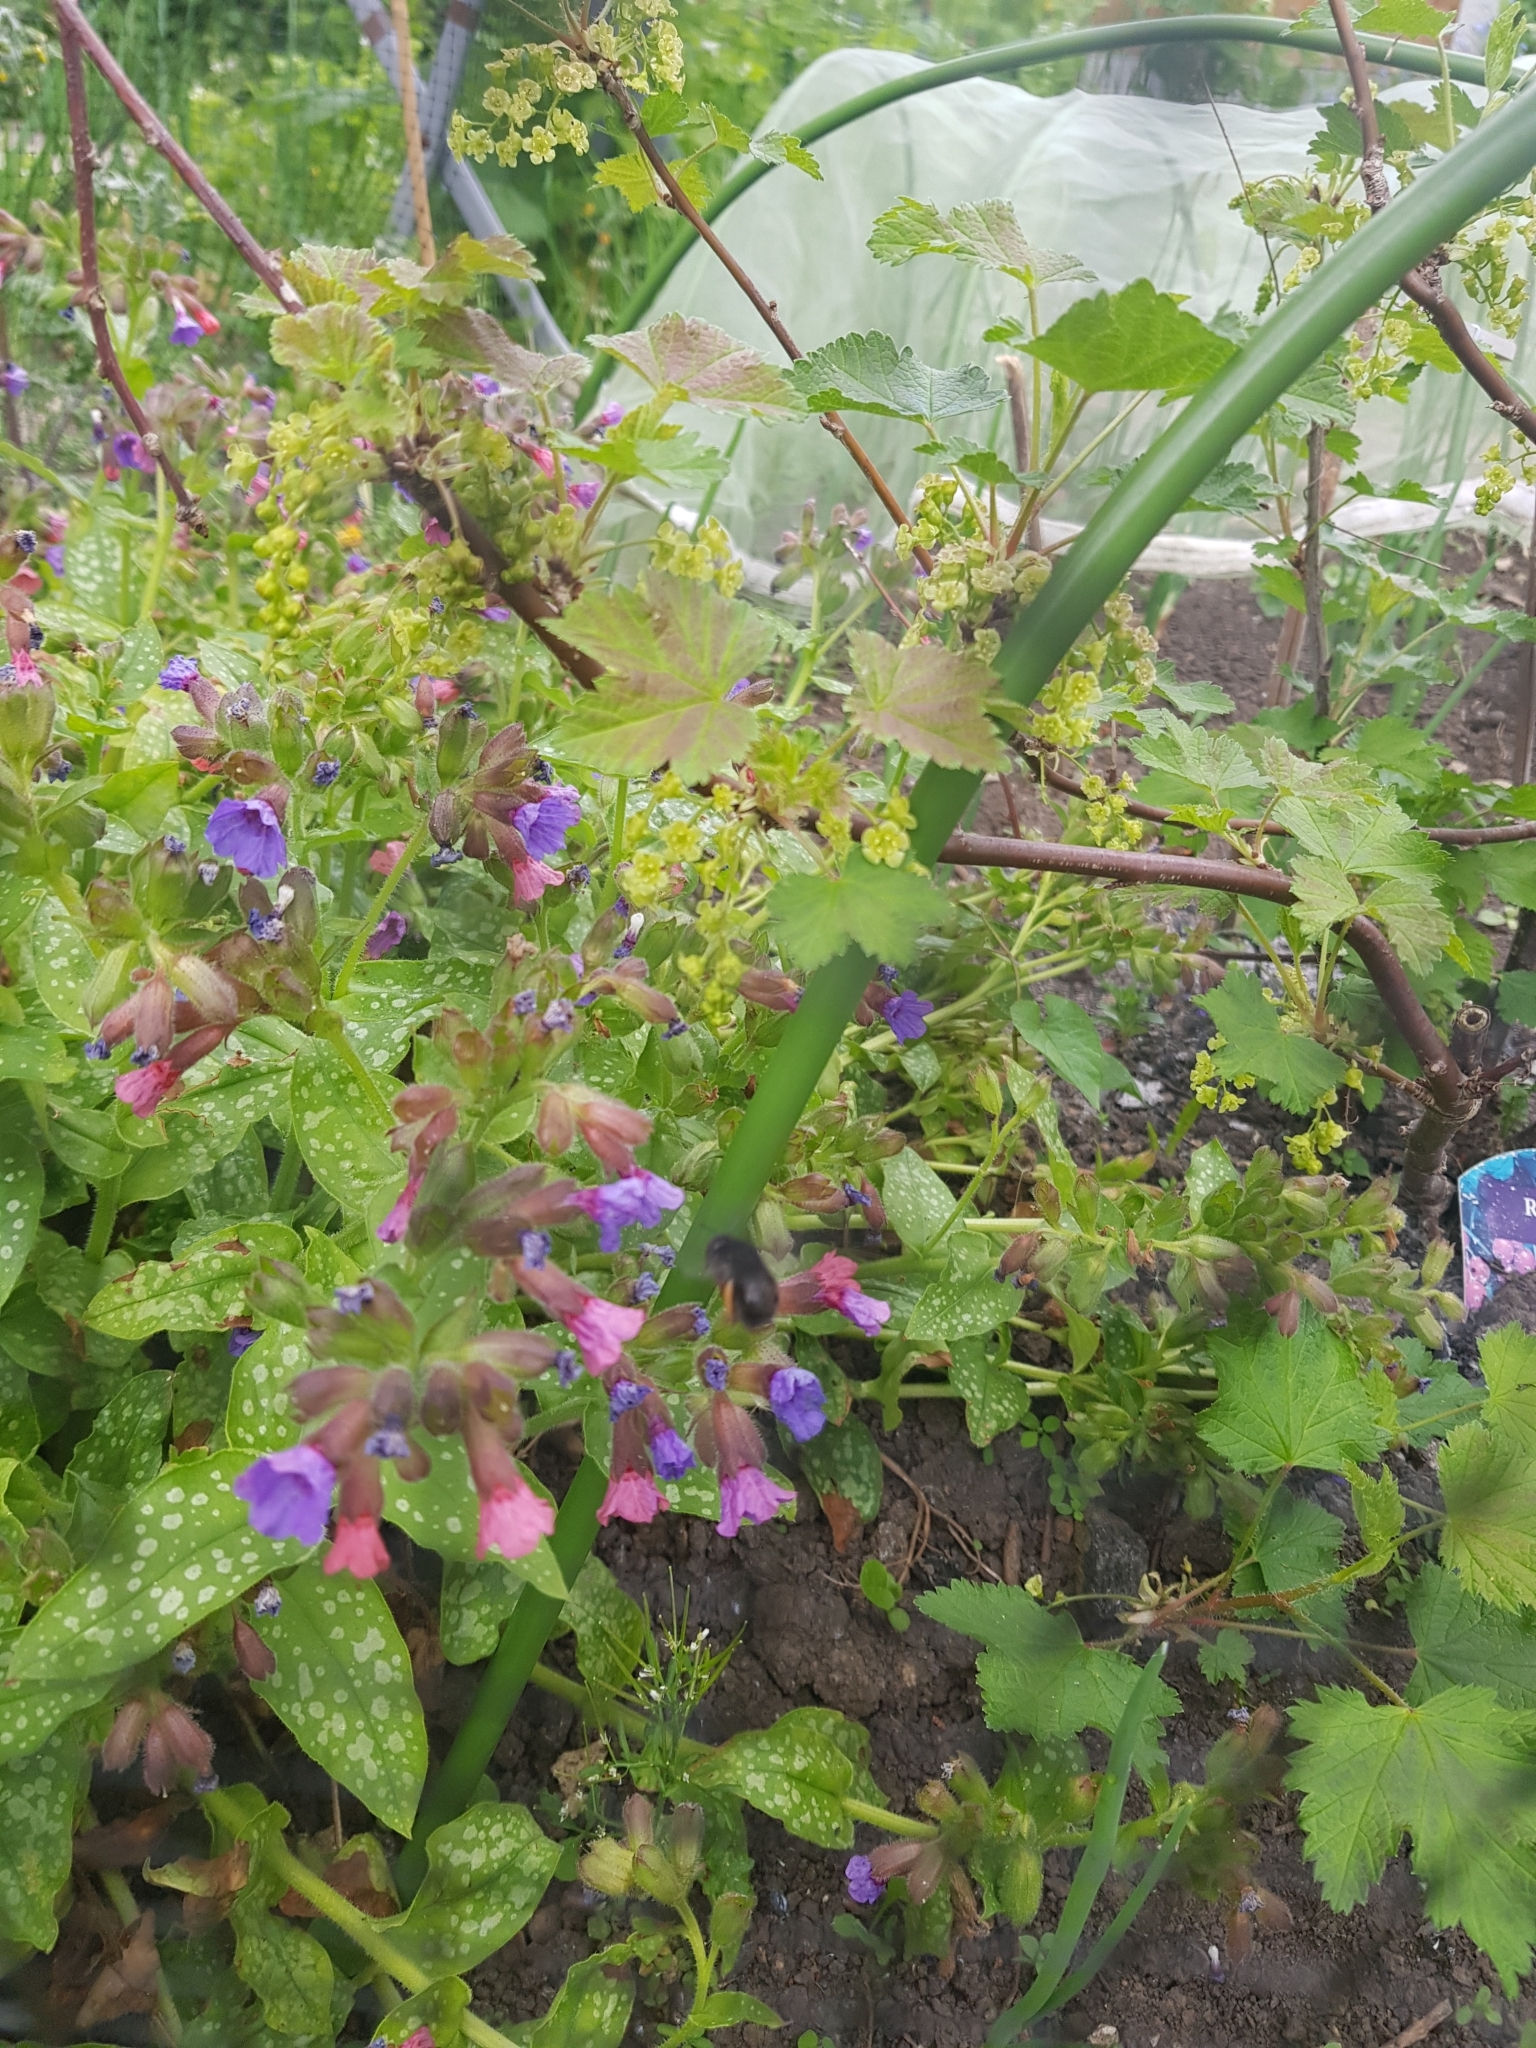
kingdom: Animalia
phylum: Arthropoda
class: Insecta
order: Hymenoptera
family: Apidae
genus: Anthophora
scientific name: Anthophora plumipes
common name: Hairy-footed flower bee
